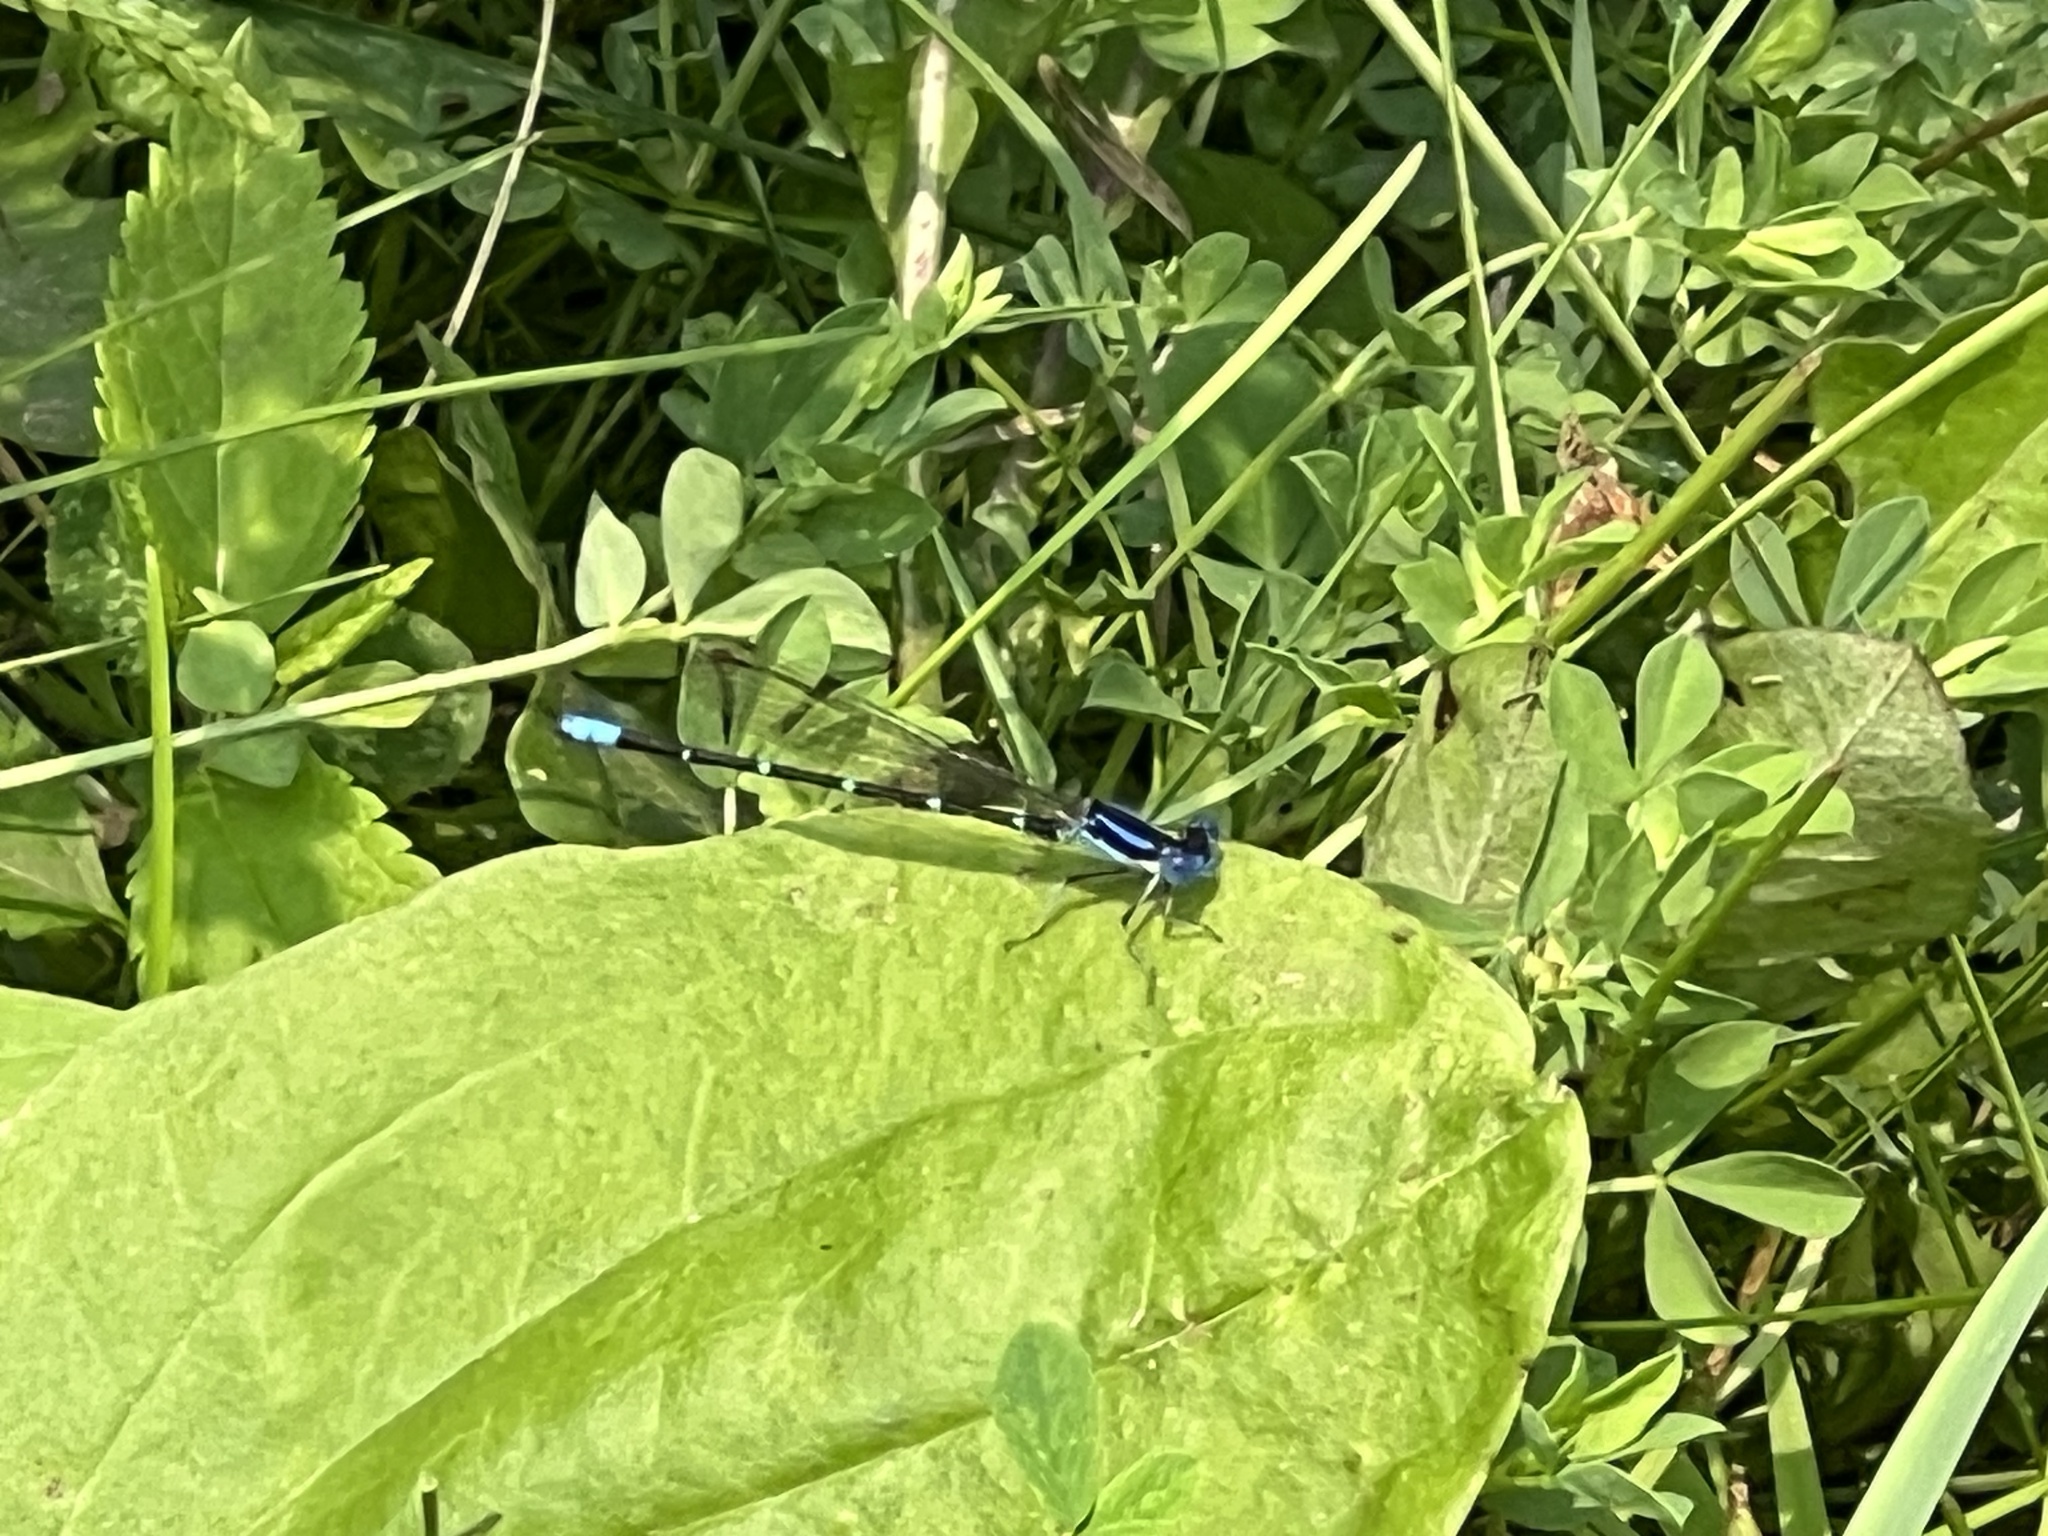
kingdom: Animalia
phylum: Arthropoda
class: Insecta
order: Odonata
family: Coenagrionidae
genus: Argia
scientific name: Argia sedula
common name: Blue-ringed dancer
